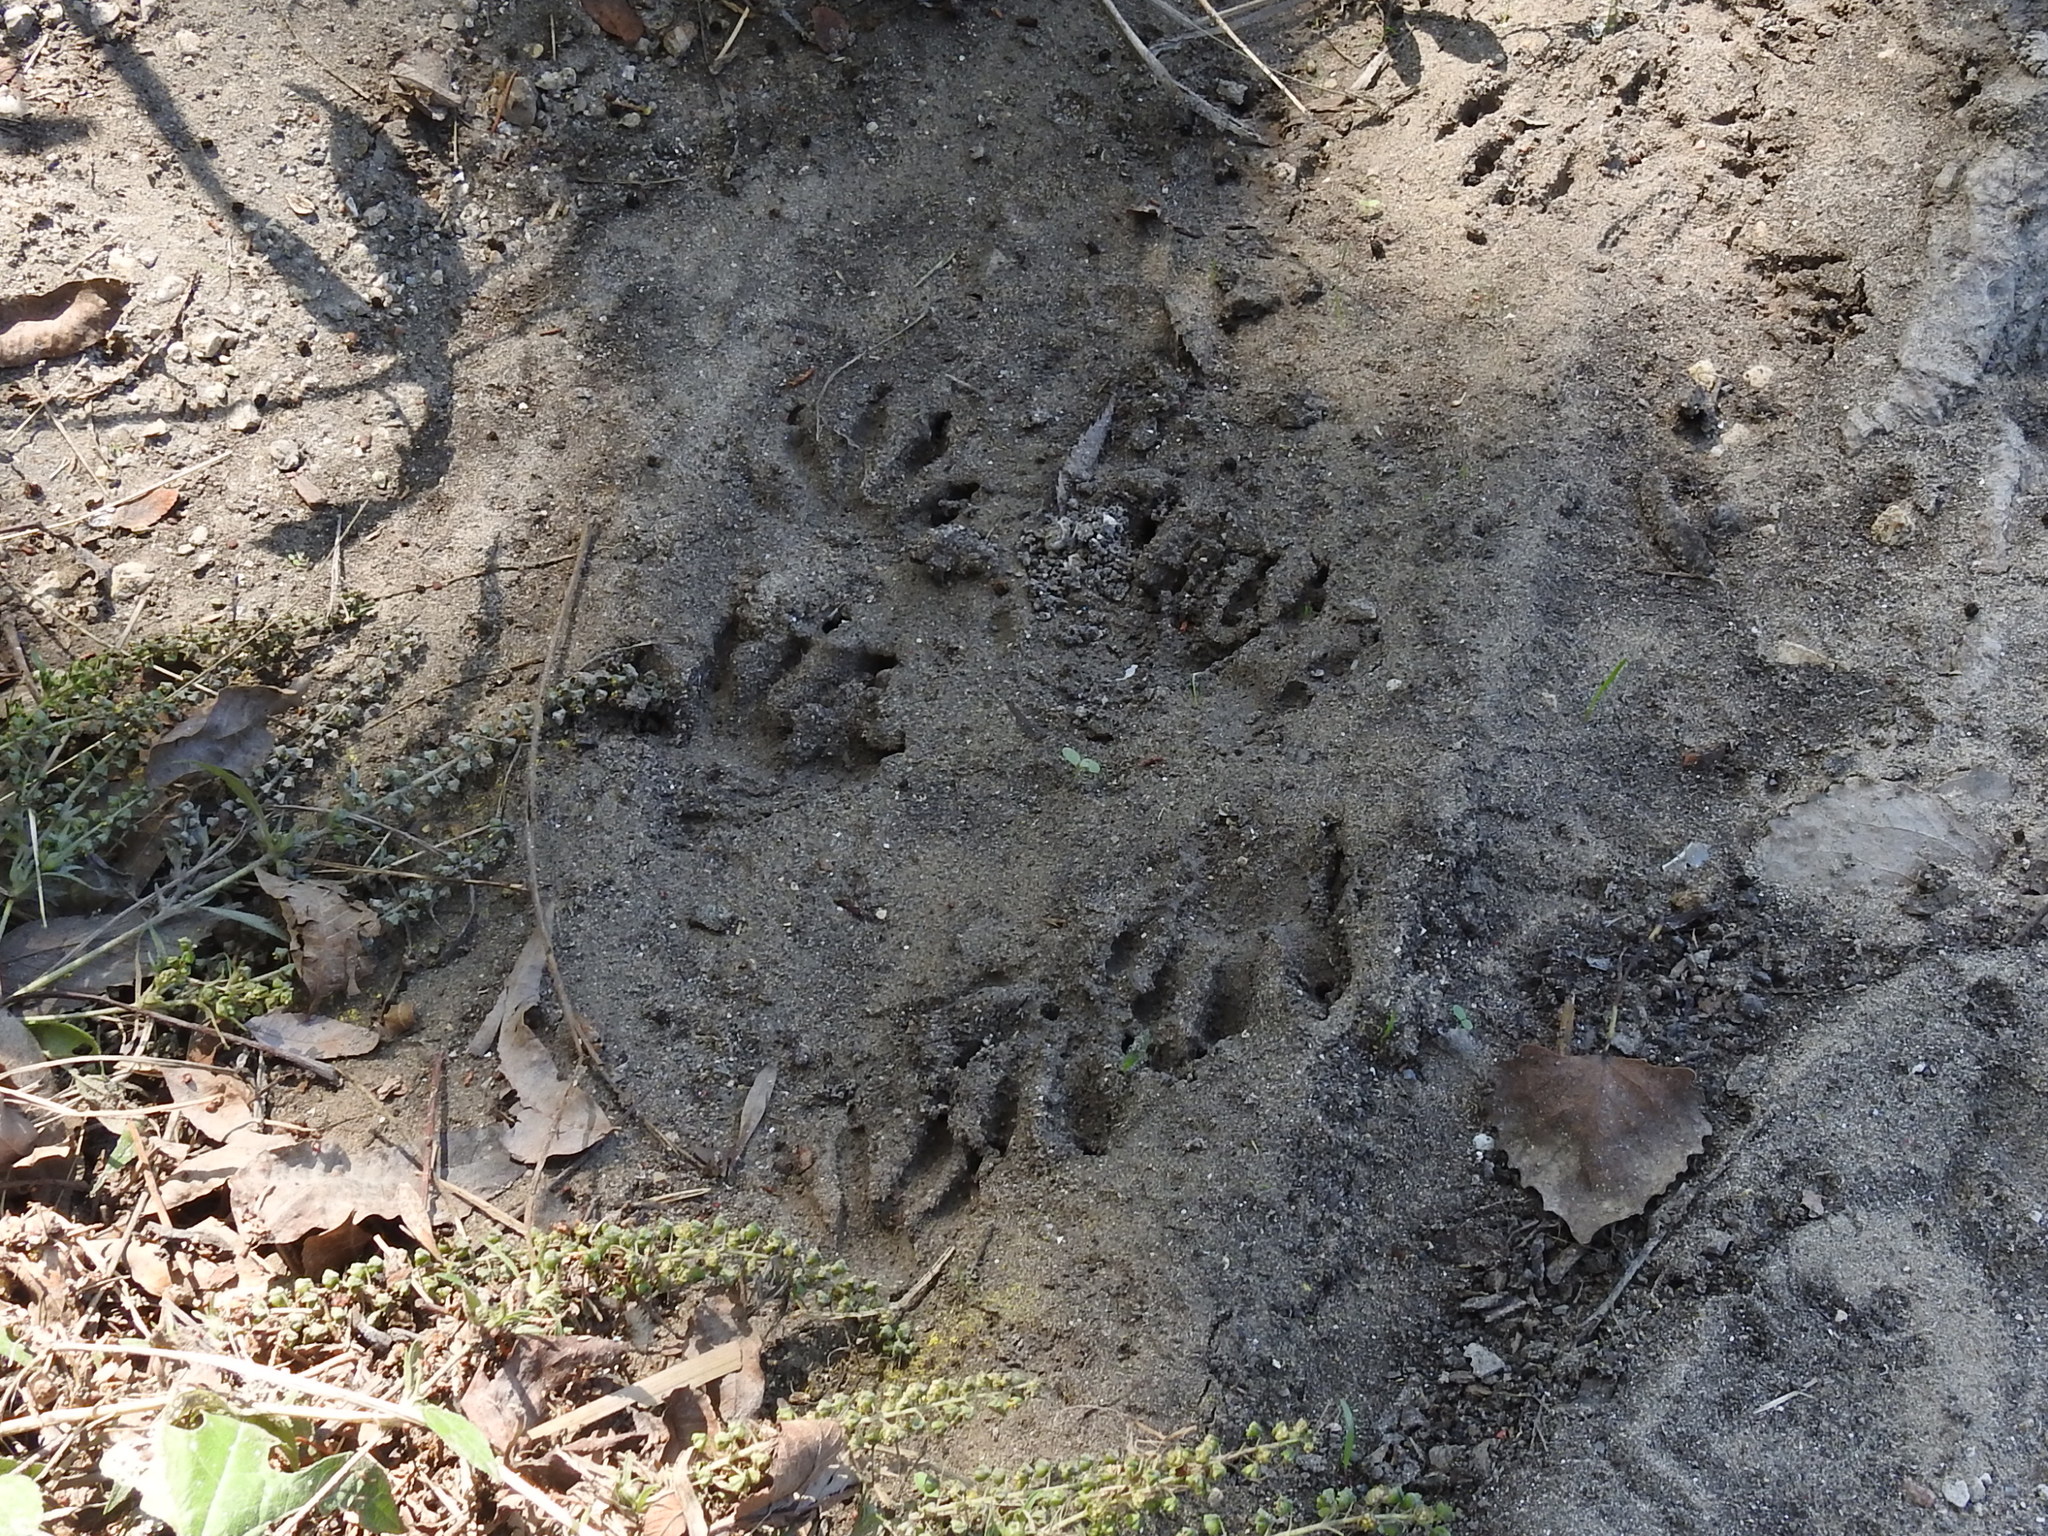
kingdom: Animalia
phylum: Chordata
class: Mammalia
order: Carnivora
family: Procyonidae
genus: Procyon
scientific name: Procyon lotor
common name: Raccoon
